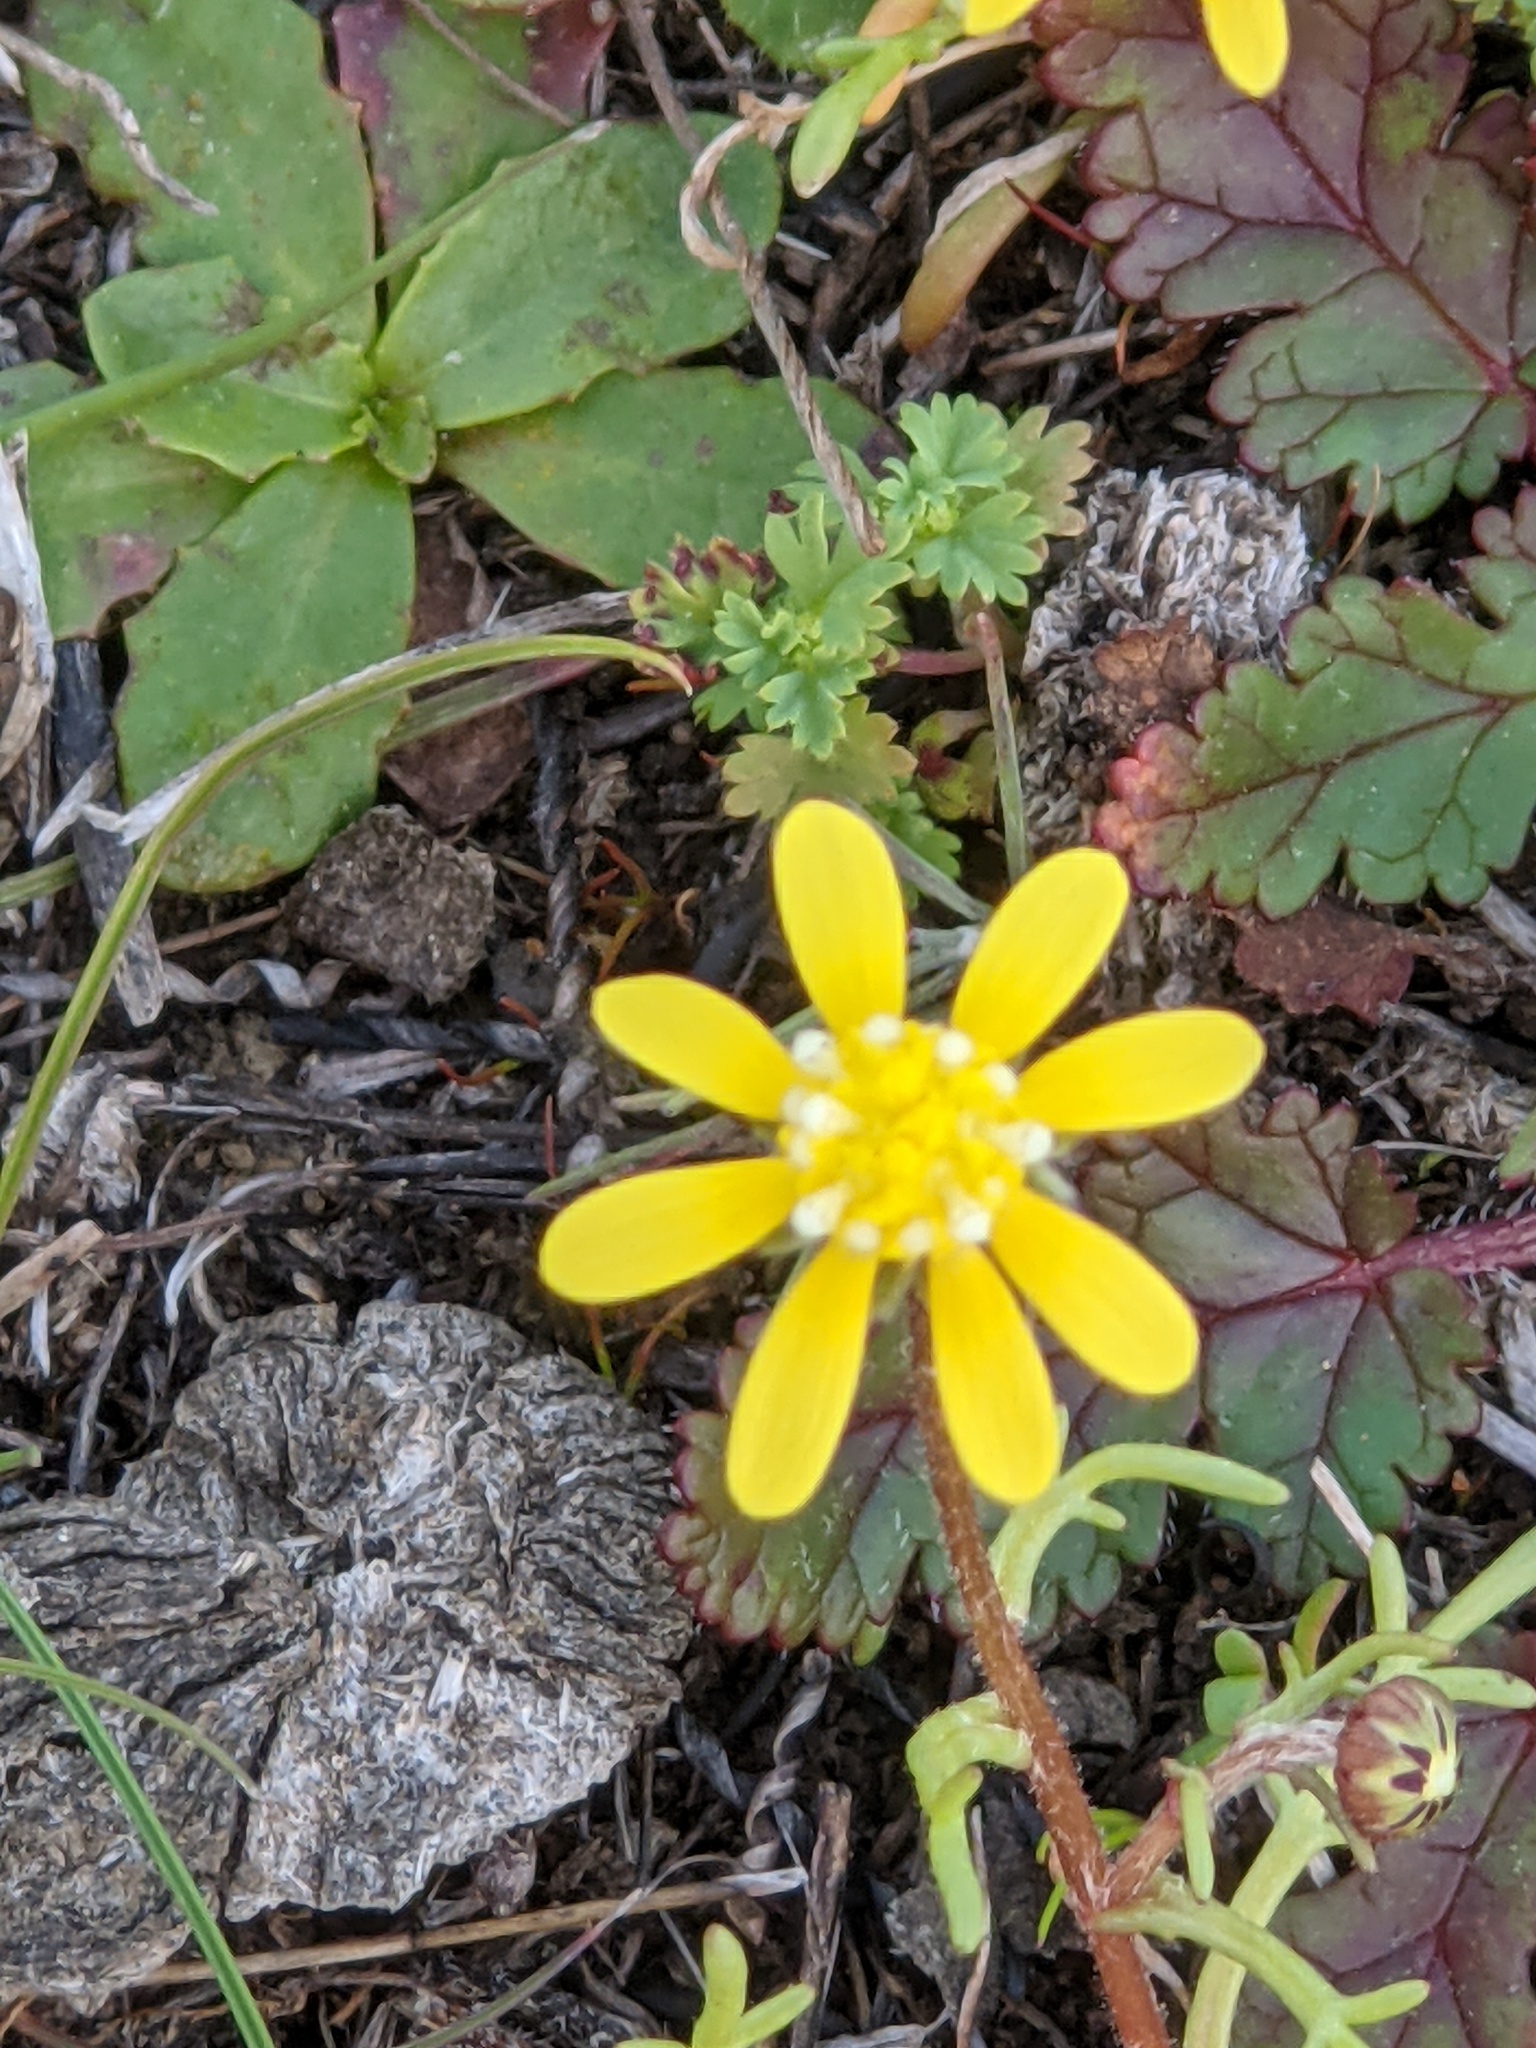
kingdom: Plantae
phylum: Tracheophyta
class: Magnoliopsida
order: Asterales
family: Asteraceae
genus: Blennosperma
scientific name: Blennosperma nanum
